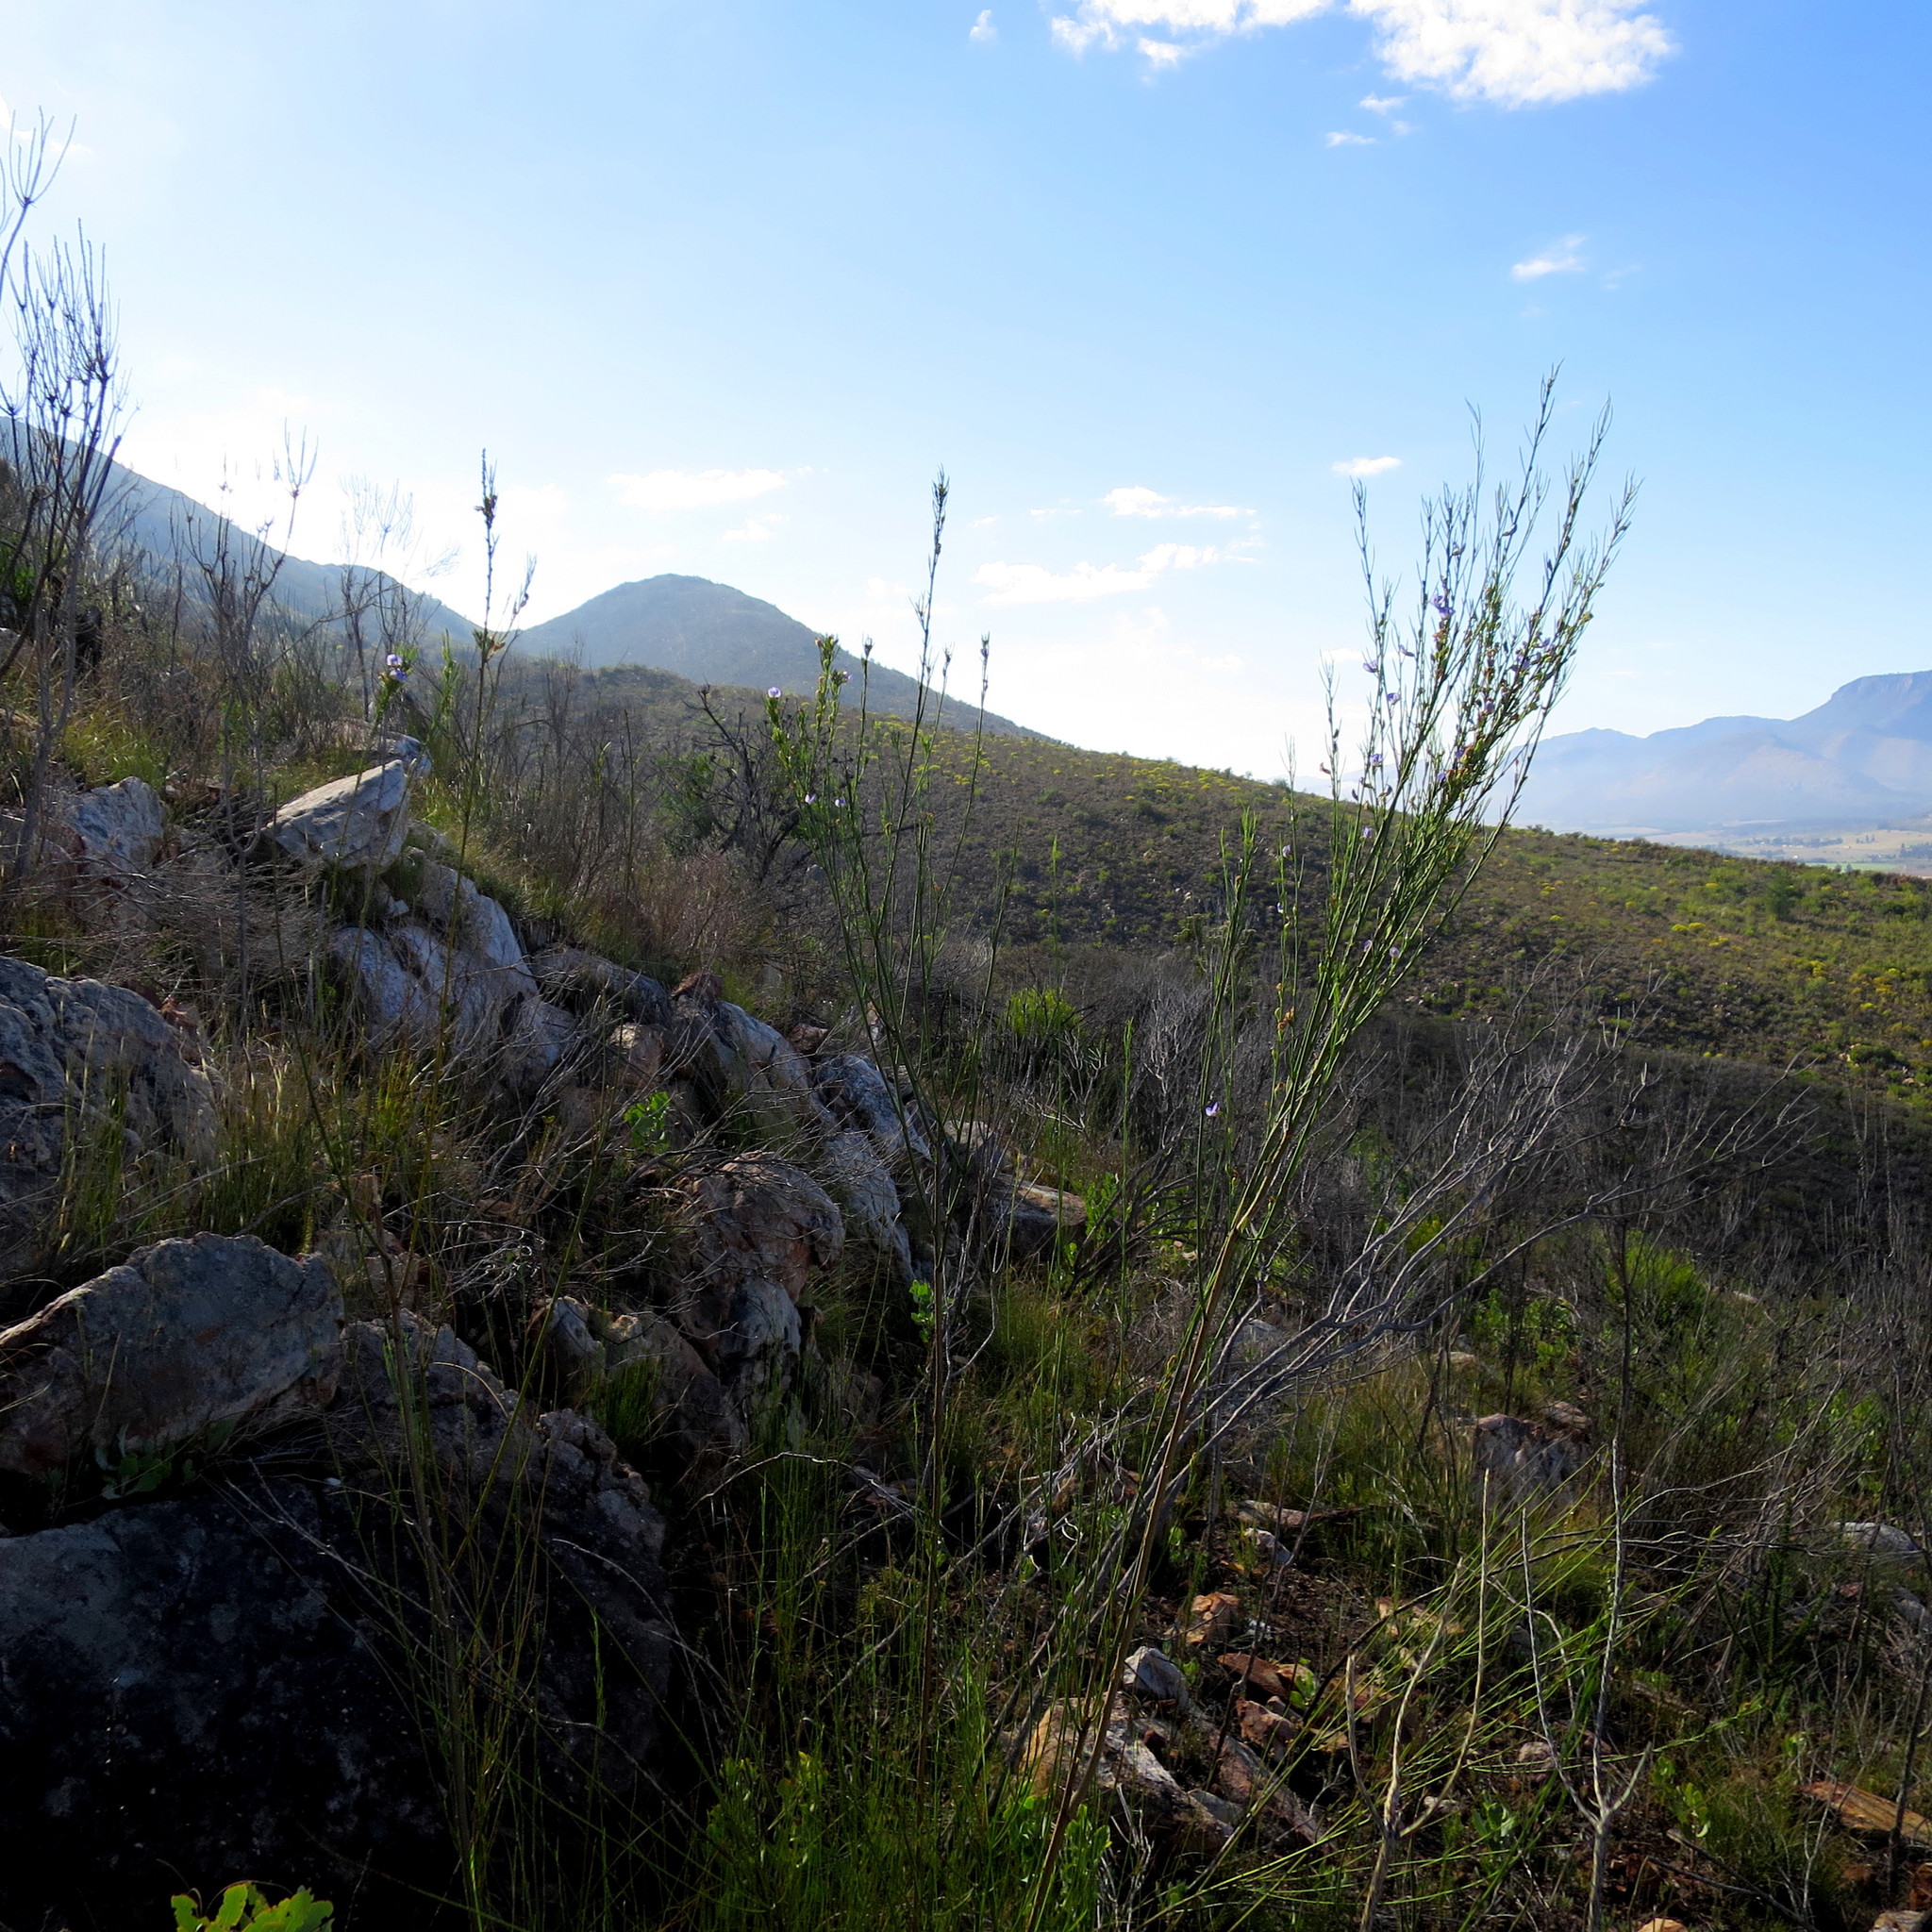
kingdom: Plantae
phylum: Tracheophyta
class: Magnoliopsida
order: Fabales
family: Fabaceae
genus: Psoralea
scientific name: Psoralea diturnerae
